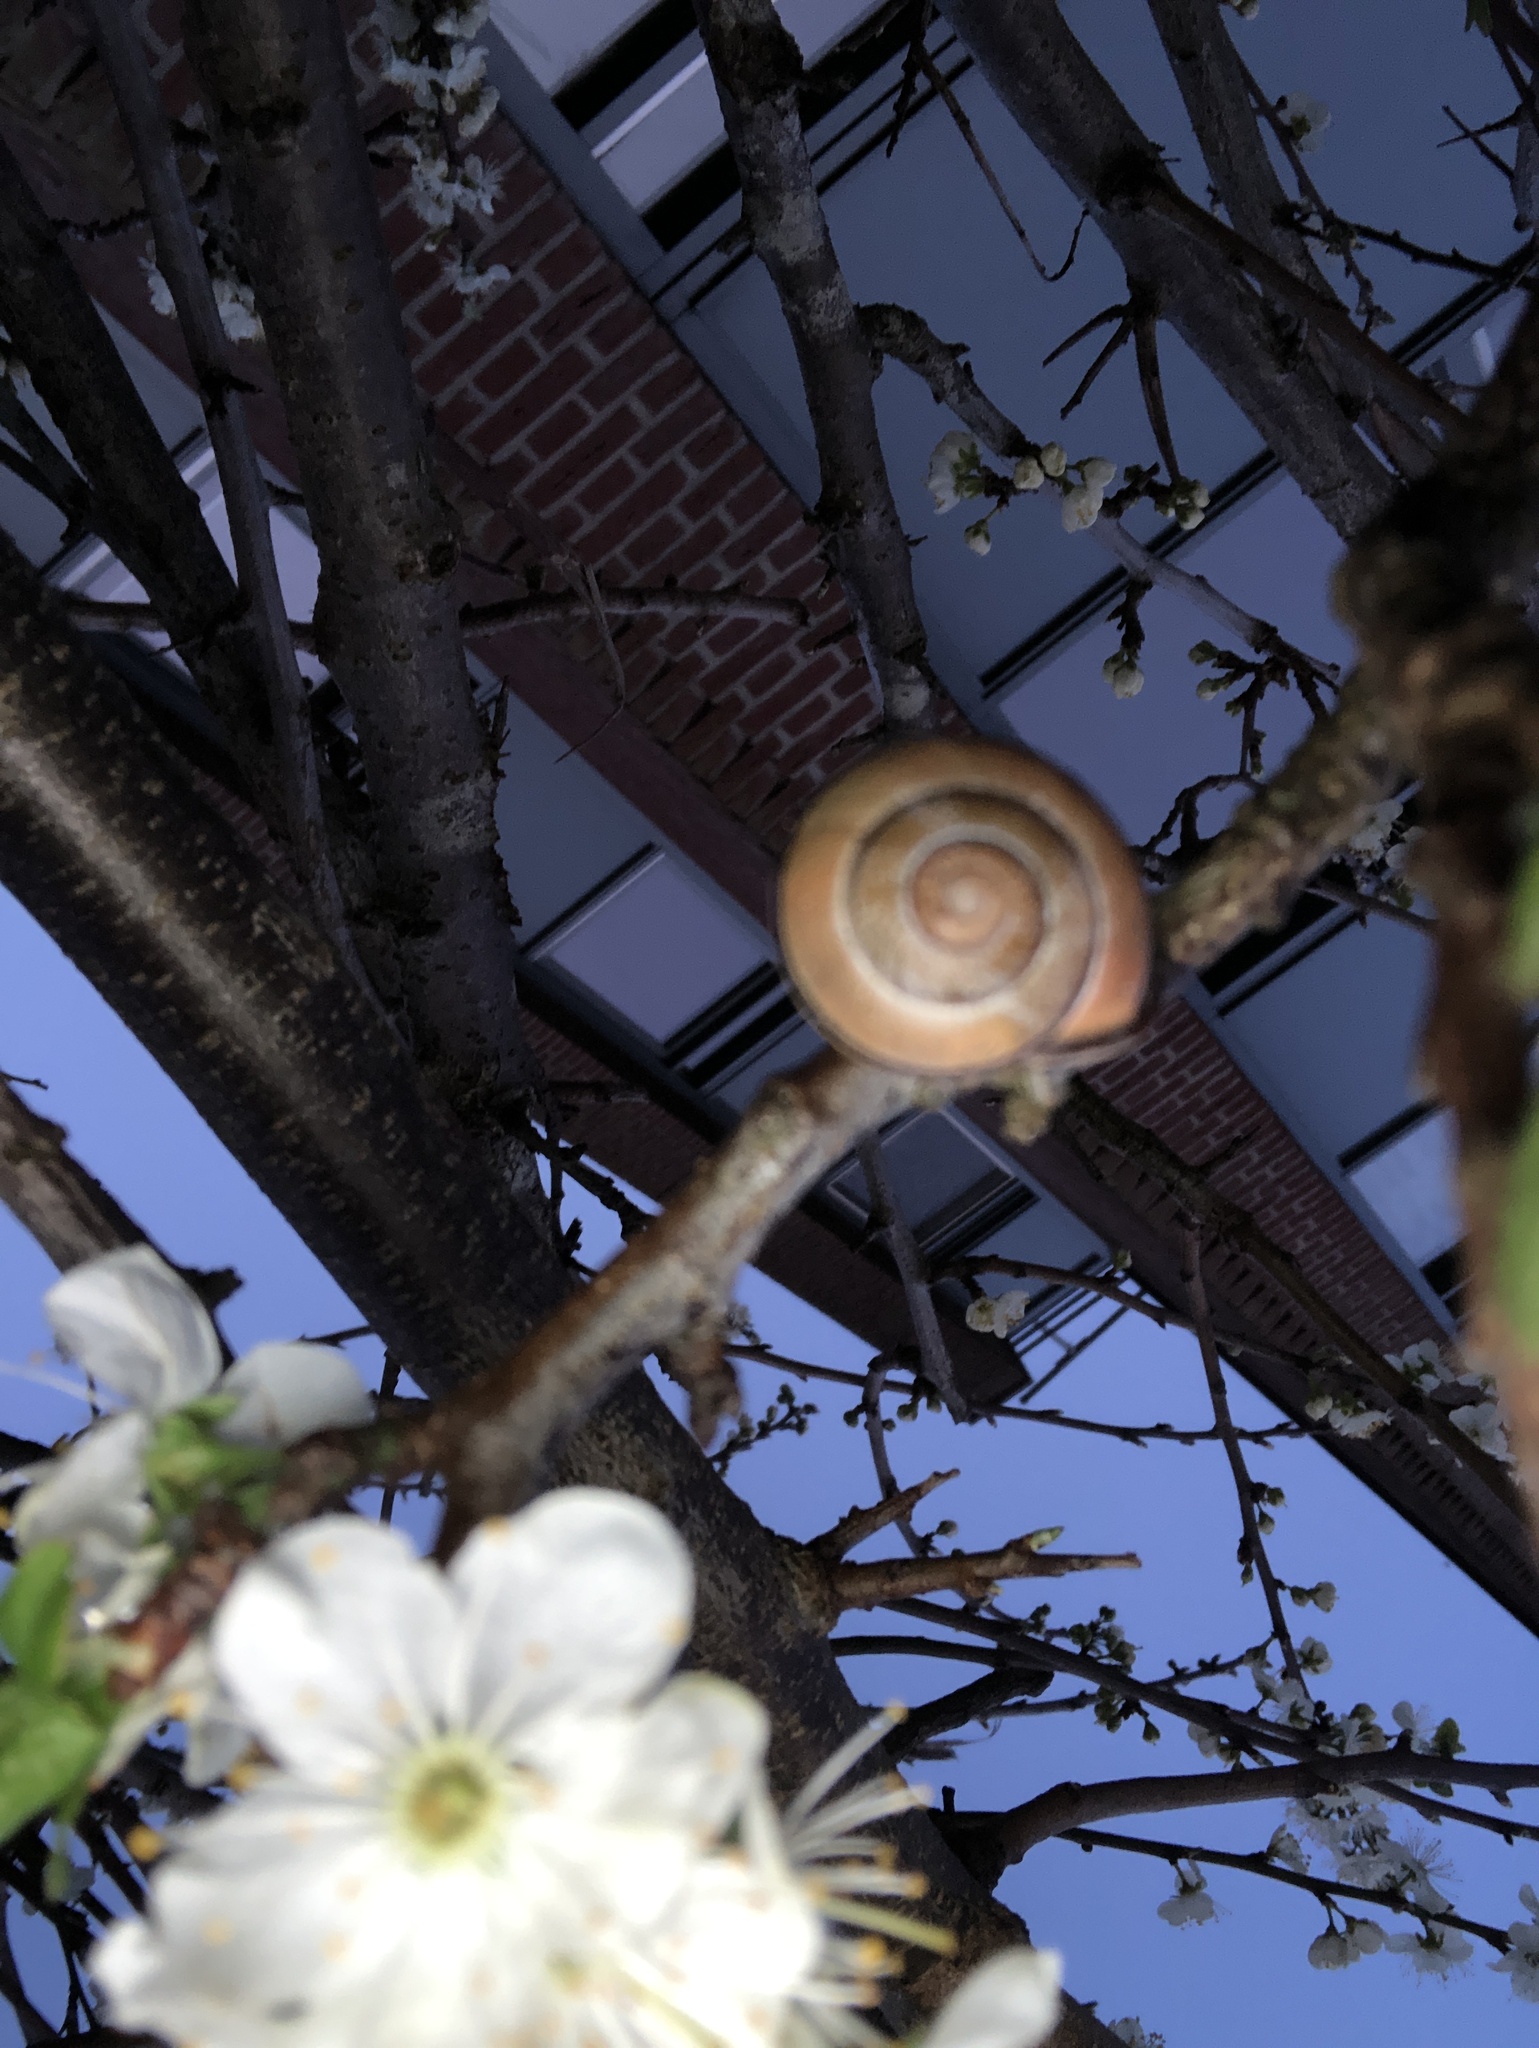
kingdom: Animalia
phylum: Mollusca
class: Gastropoda
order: Stylommatophora
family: Helicidae
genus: Cepaea
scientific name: Cepaea nemoralis
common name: Grovesnail
